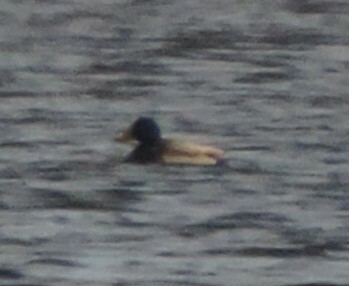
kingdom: Animalia
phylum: Chordata
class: Aves
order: Anseriformes
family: Anatidae
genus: Anas
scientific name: Anas platyrhynchos
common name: Mallard
